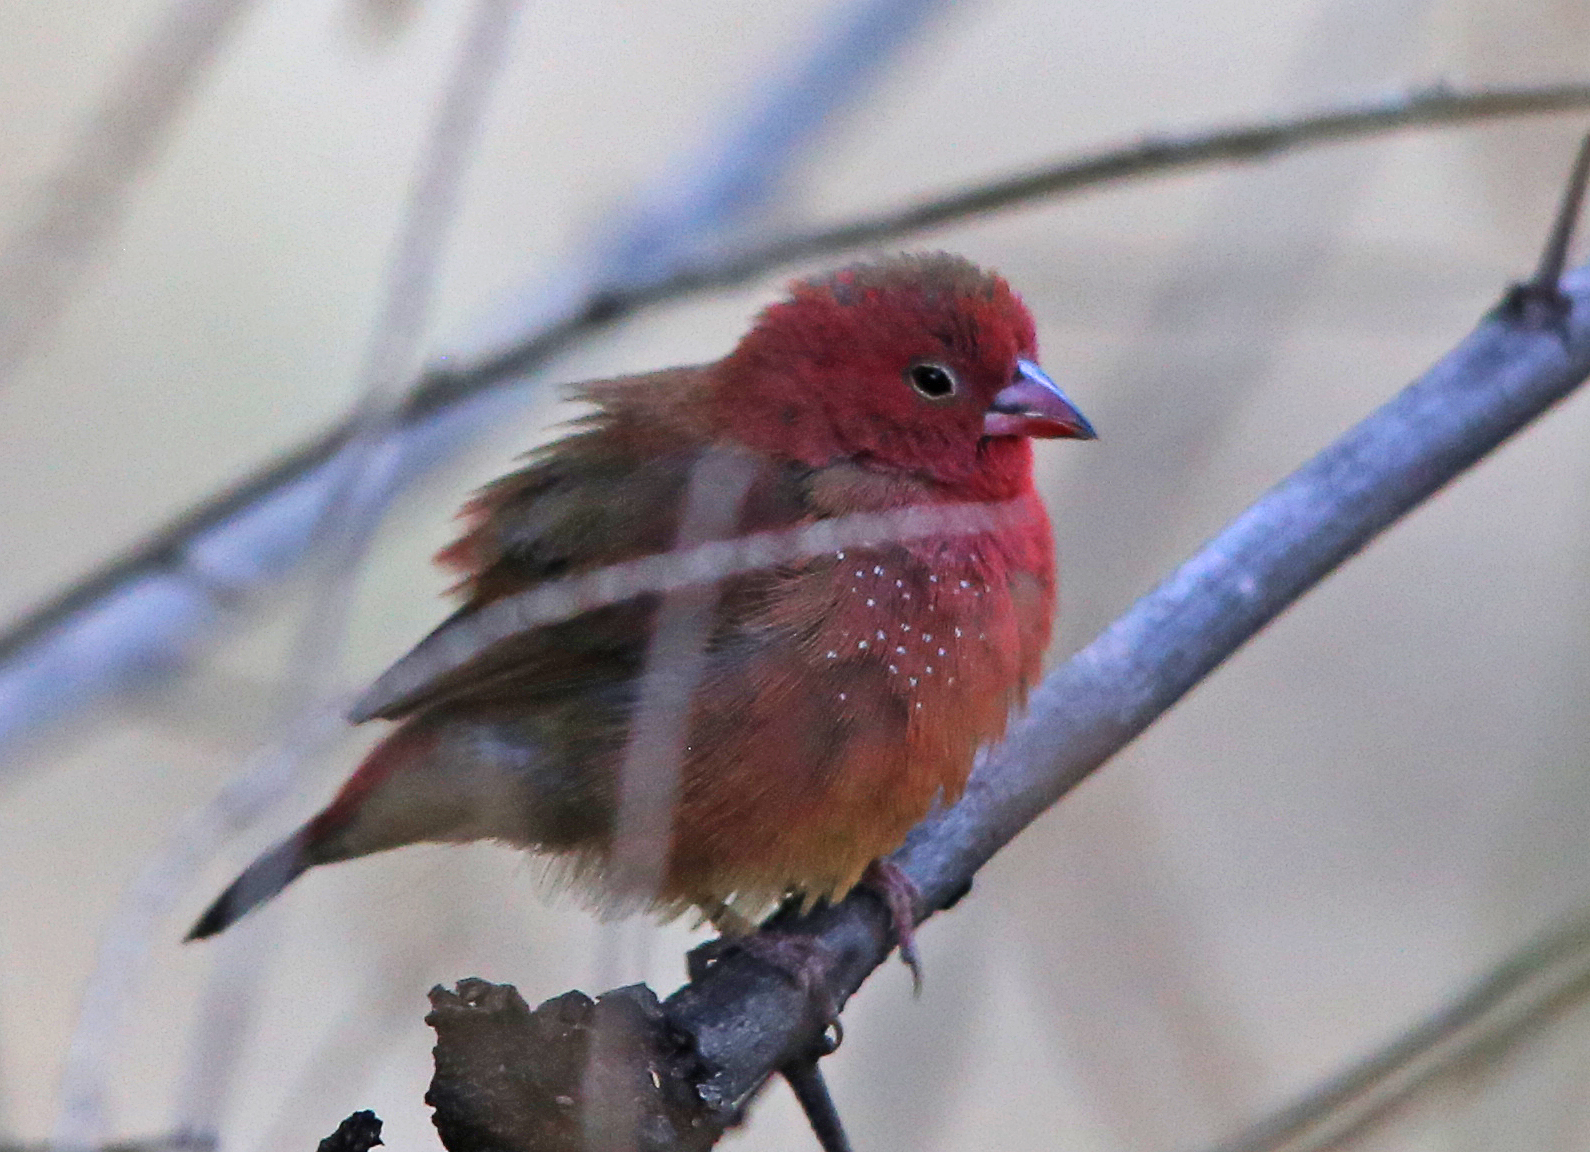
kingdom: Animalia
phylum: Chordata
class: Aves
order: Passeriformes
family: Estrildidae
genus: Lagonosticta
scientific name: Lagonosticta senegala
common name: Red-billed firefinch
